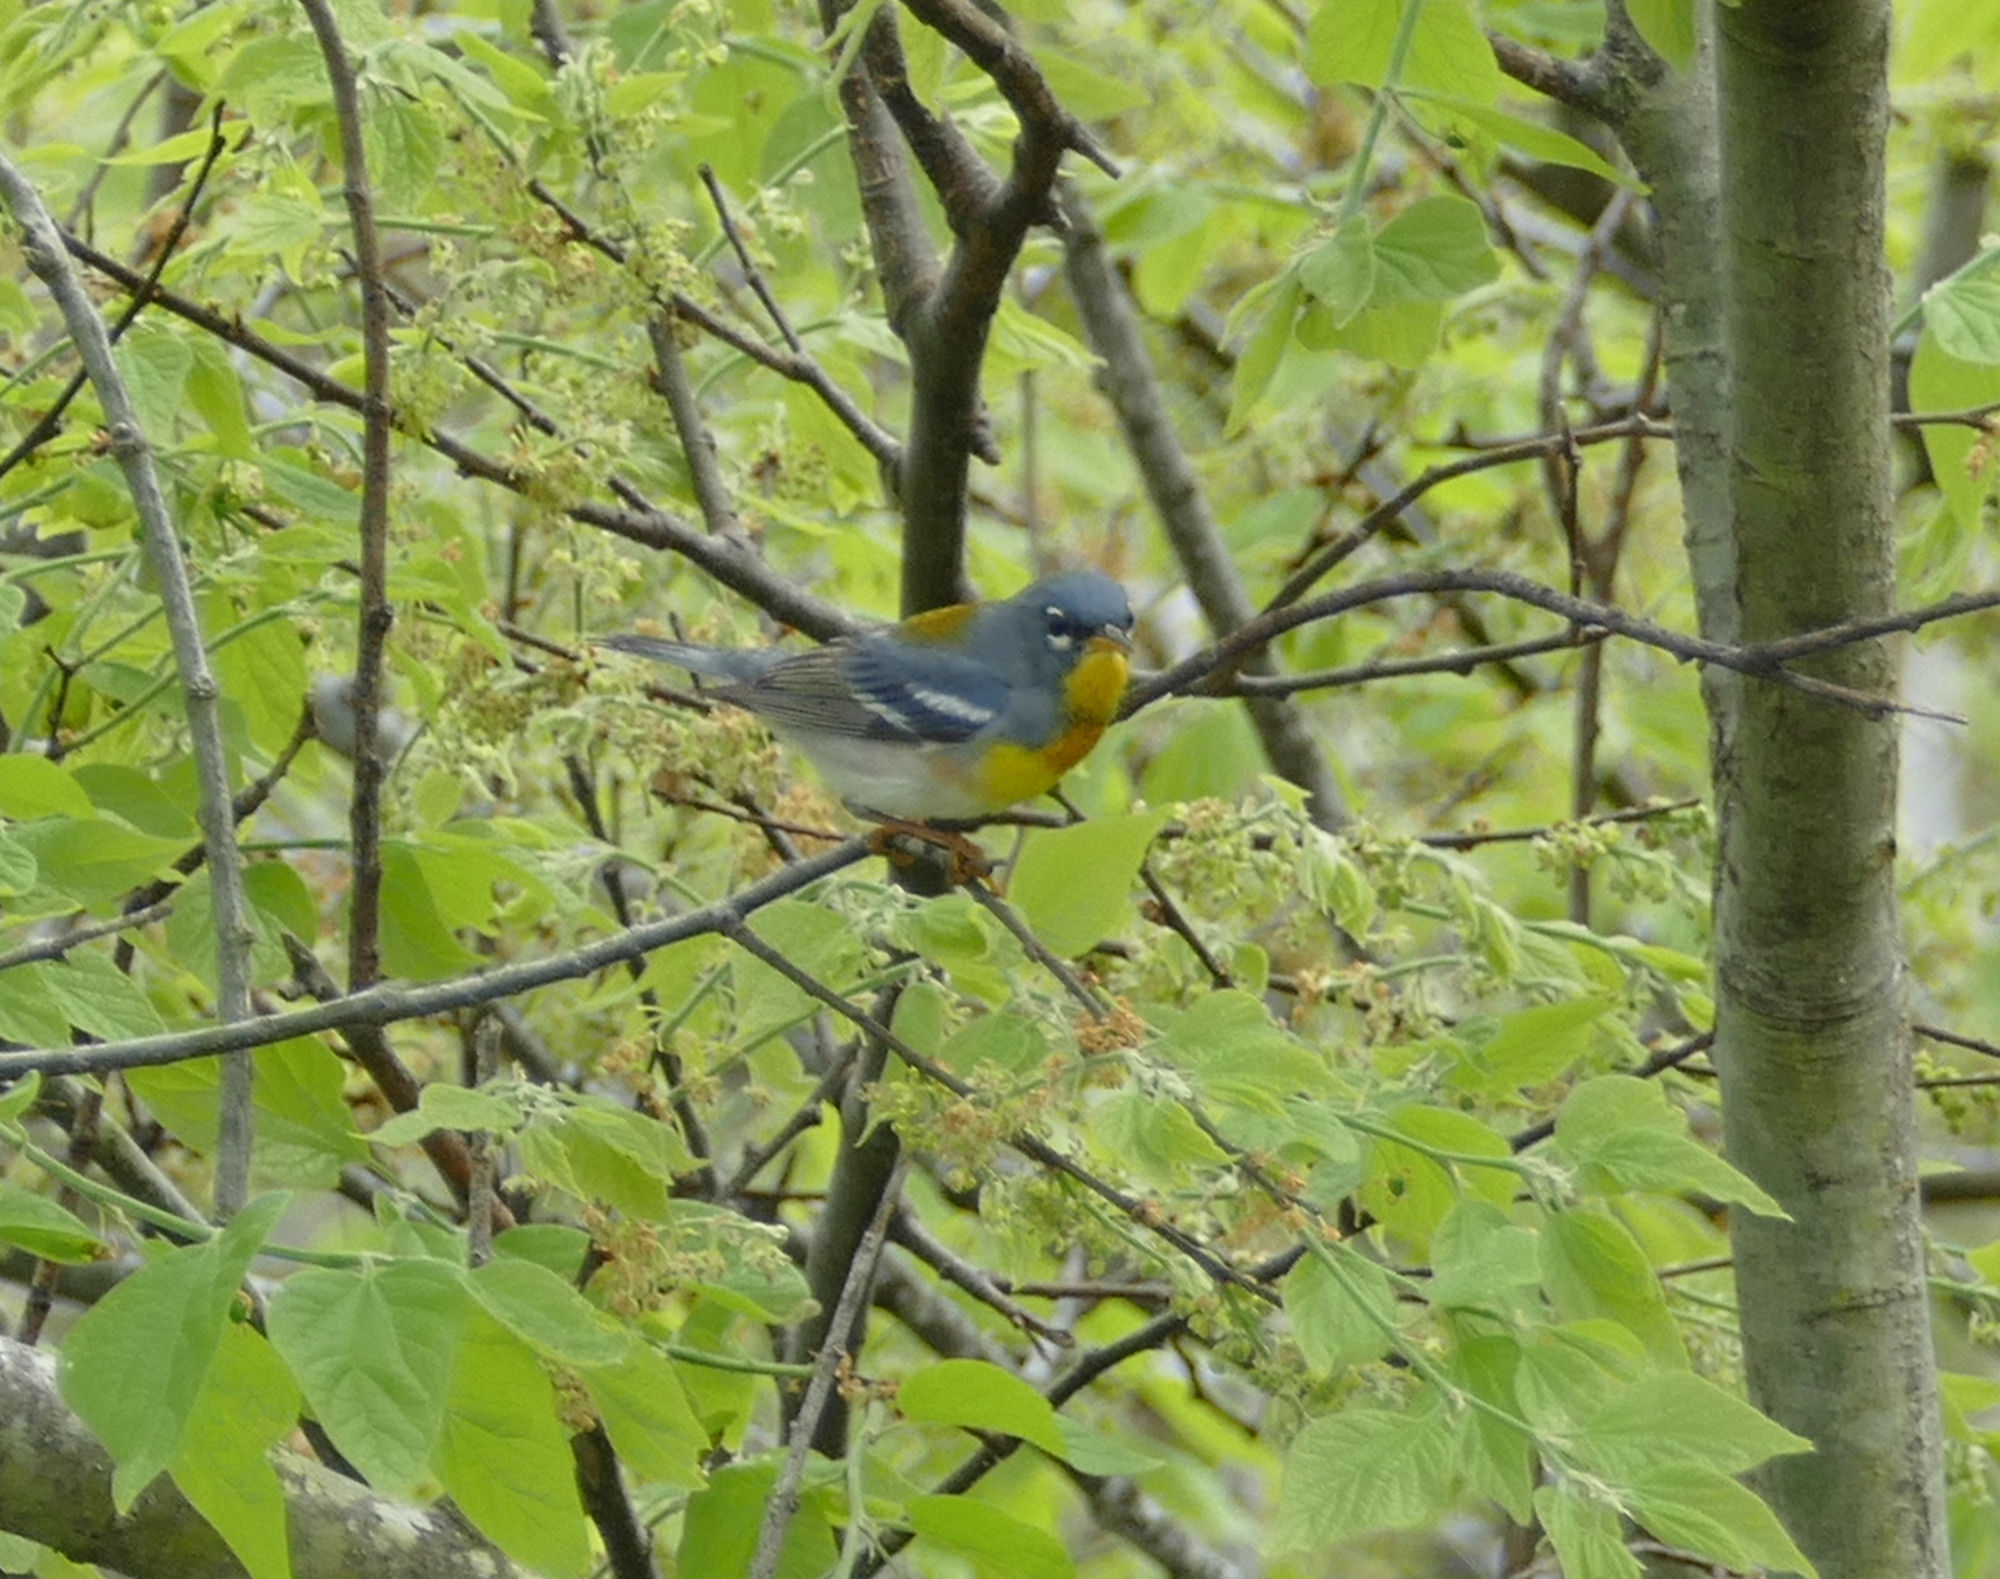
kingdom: Animalia
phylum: Chordata
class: Aves
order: Passeriformes
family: Parulidae
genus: Setophaga
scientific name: Setophaga americana
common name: Northern parula
